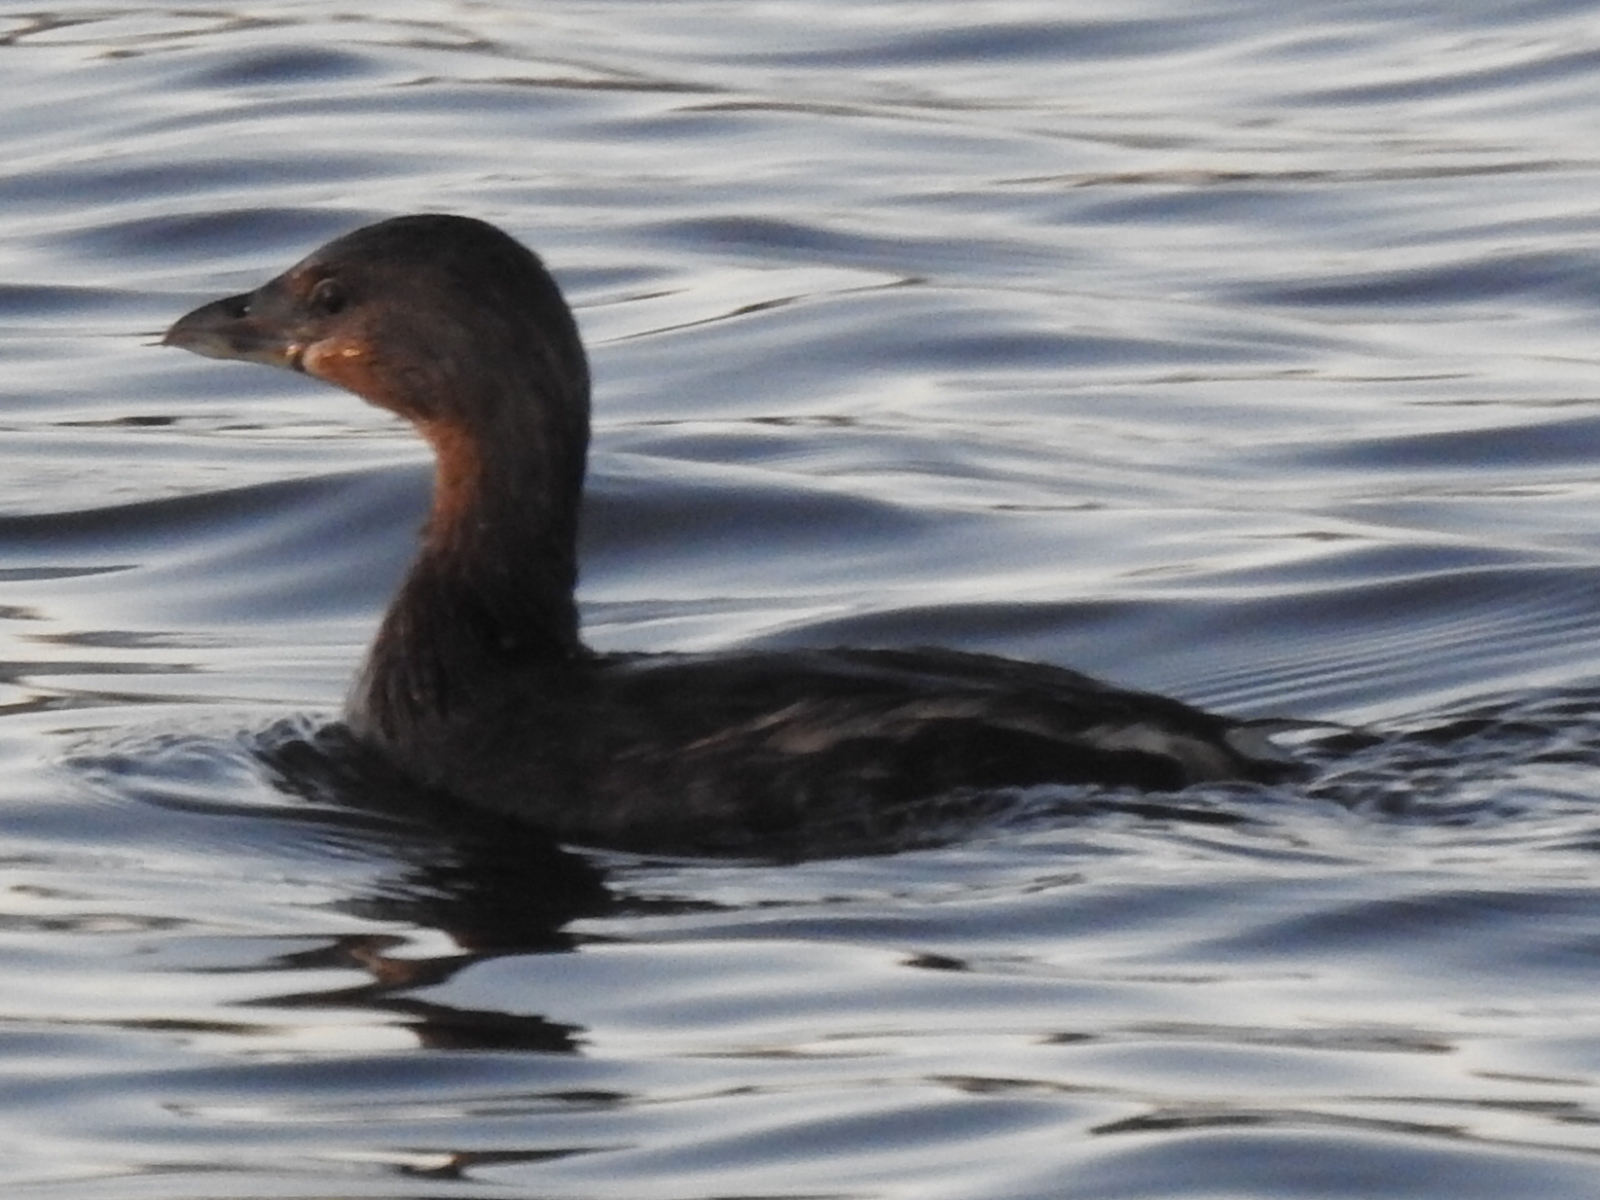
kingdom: Animalia
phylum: Chordata
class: Aves
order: Podicipediformes
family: Podicipedidae
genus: Podilymbus
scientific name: Podilymbus podiceps
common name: Pied-billed grebe
